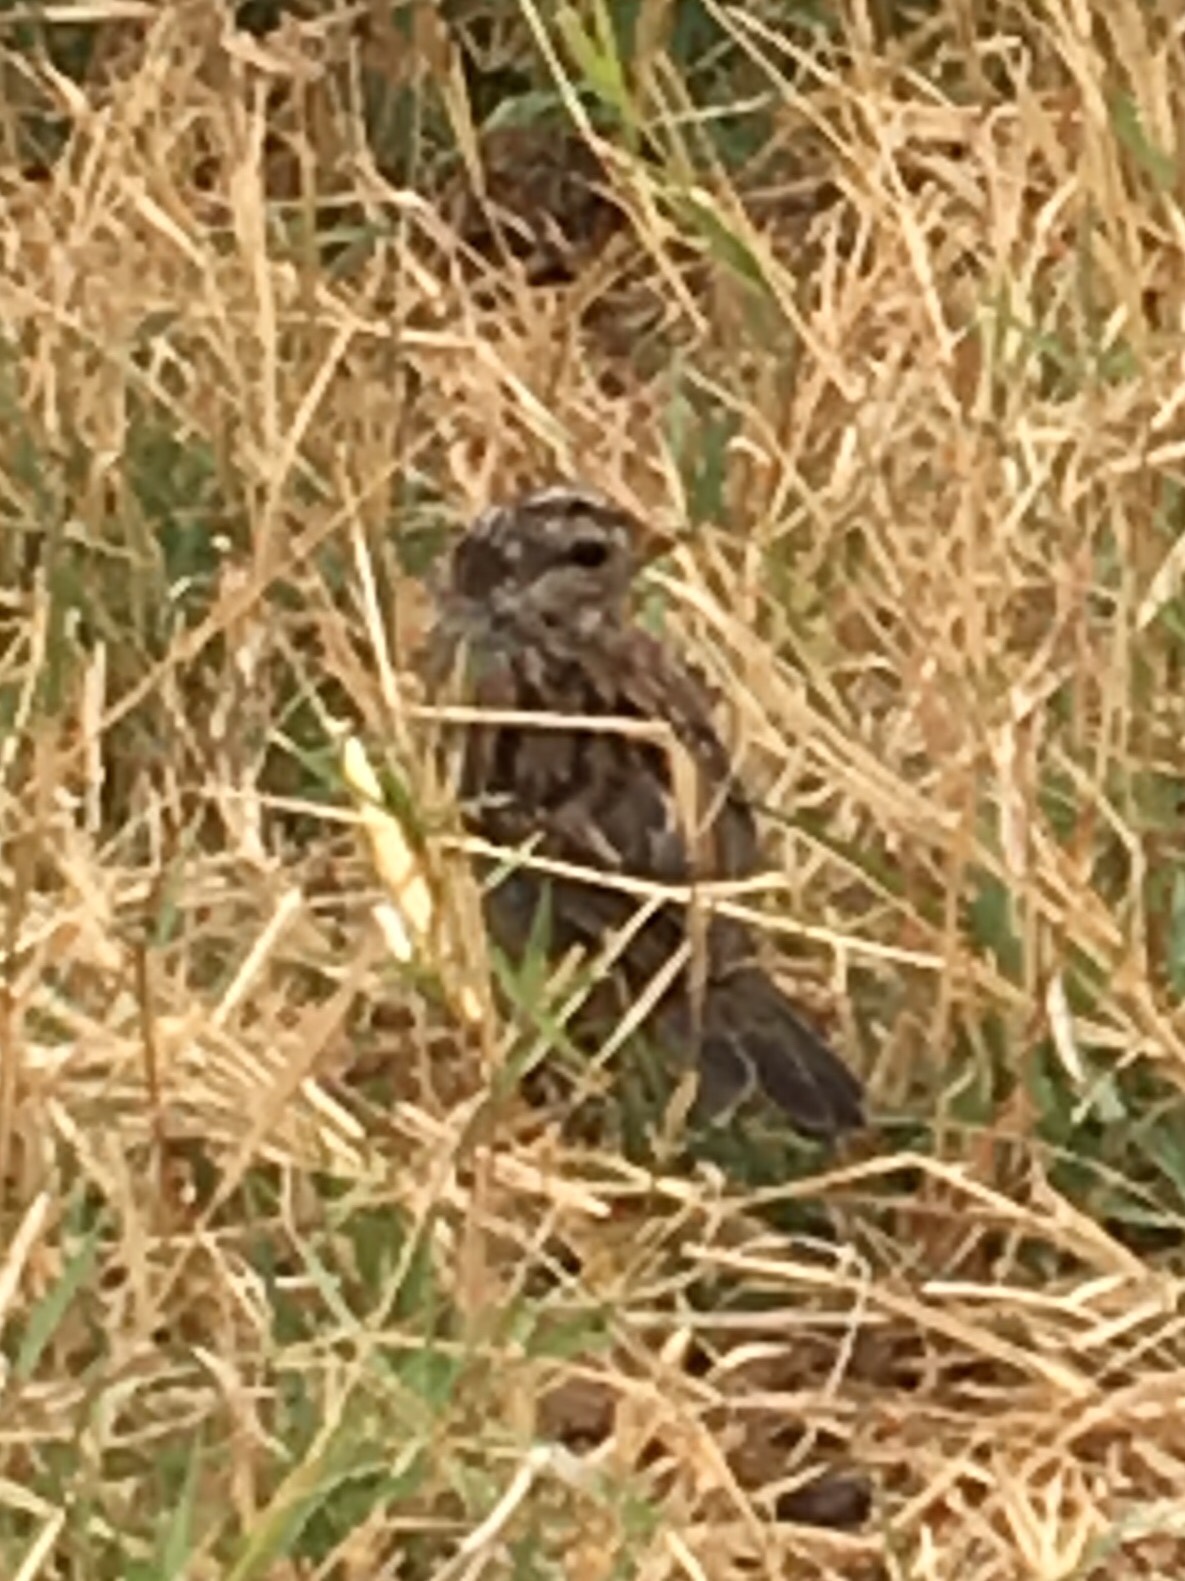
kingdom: Animalia
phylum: Chordata
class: Aves
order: Passeriformes
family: Passerellidae
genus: Zonotrichia
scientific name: Zonotrichia leucophrys
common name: White-crowned sparrow
